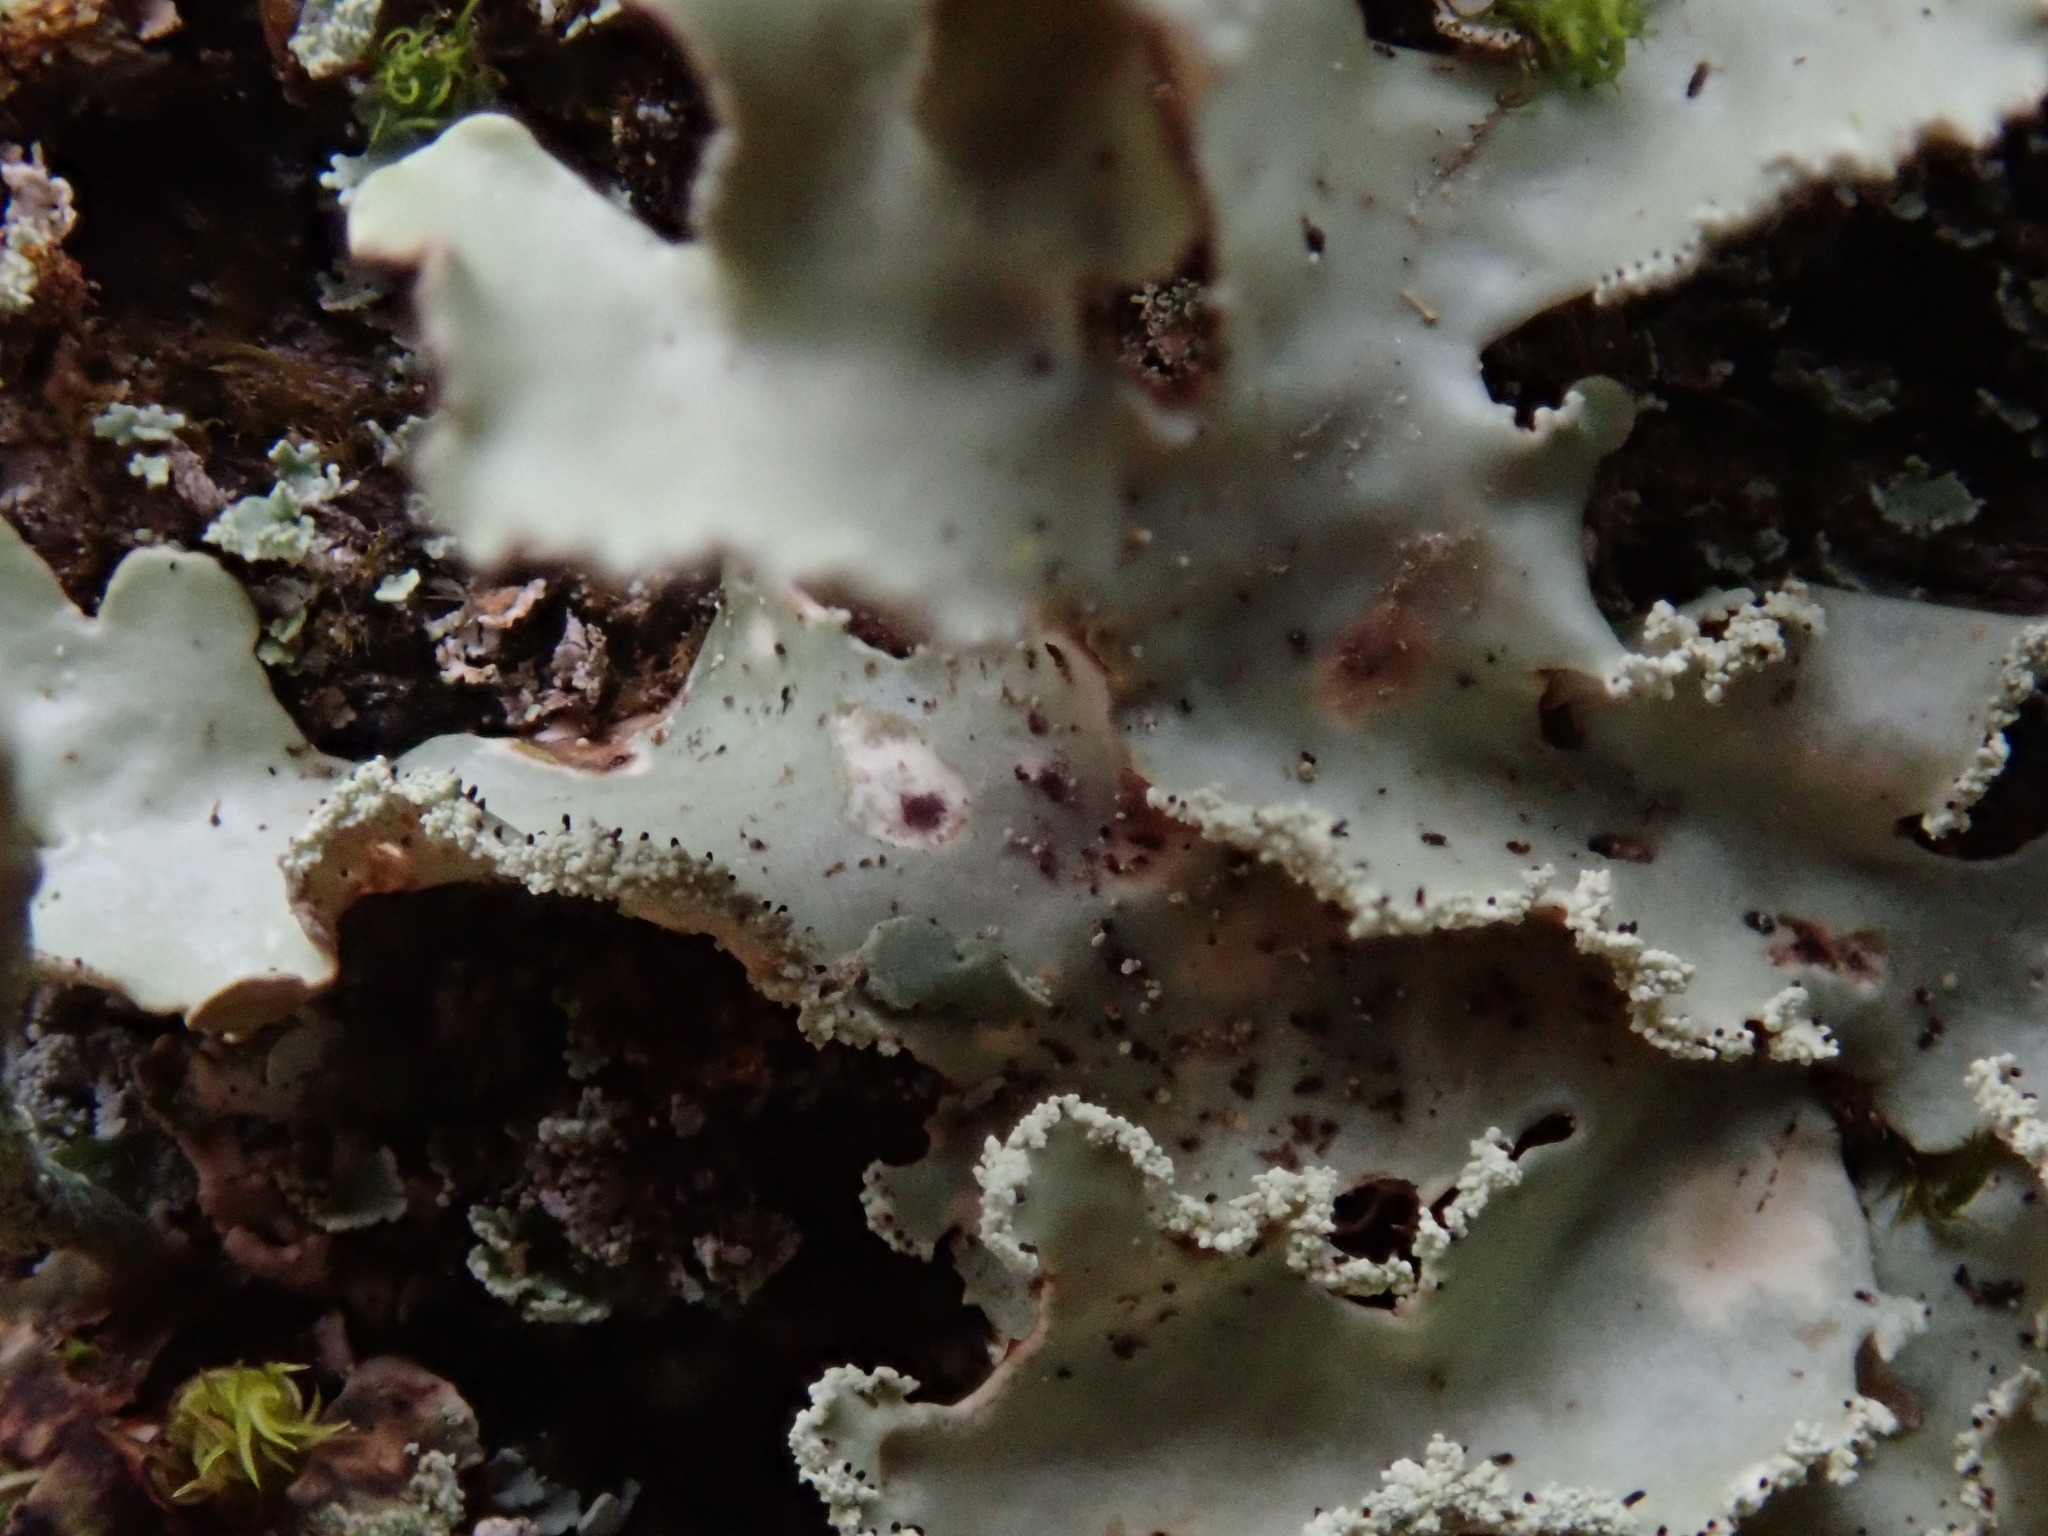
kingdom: Fungi
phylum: Ascomycota
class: Lecanoromycetes
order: Lecanorales
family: Parmeliaceae
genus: Usnocetraria
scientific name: Usnocetraria oakesiana
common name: Yellow ribbon lichen
